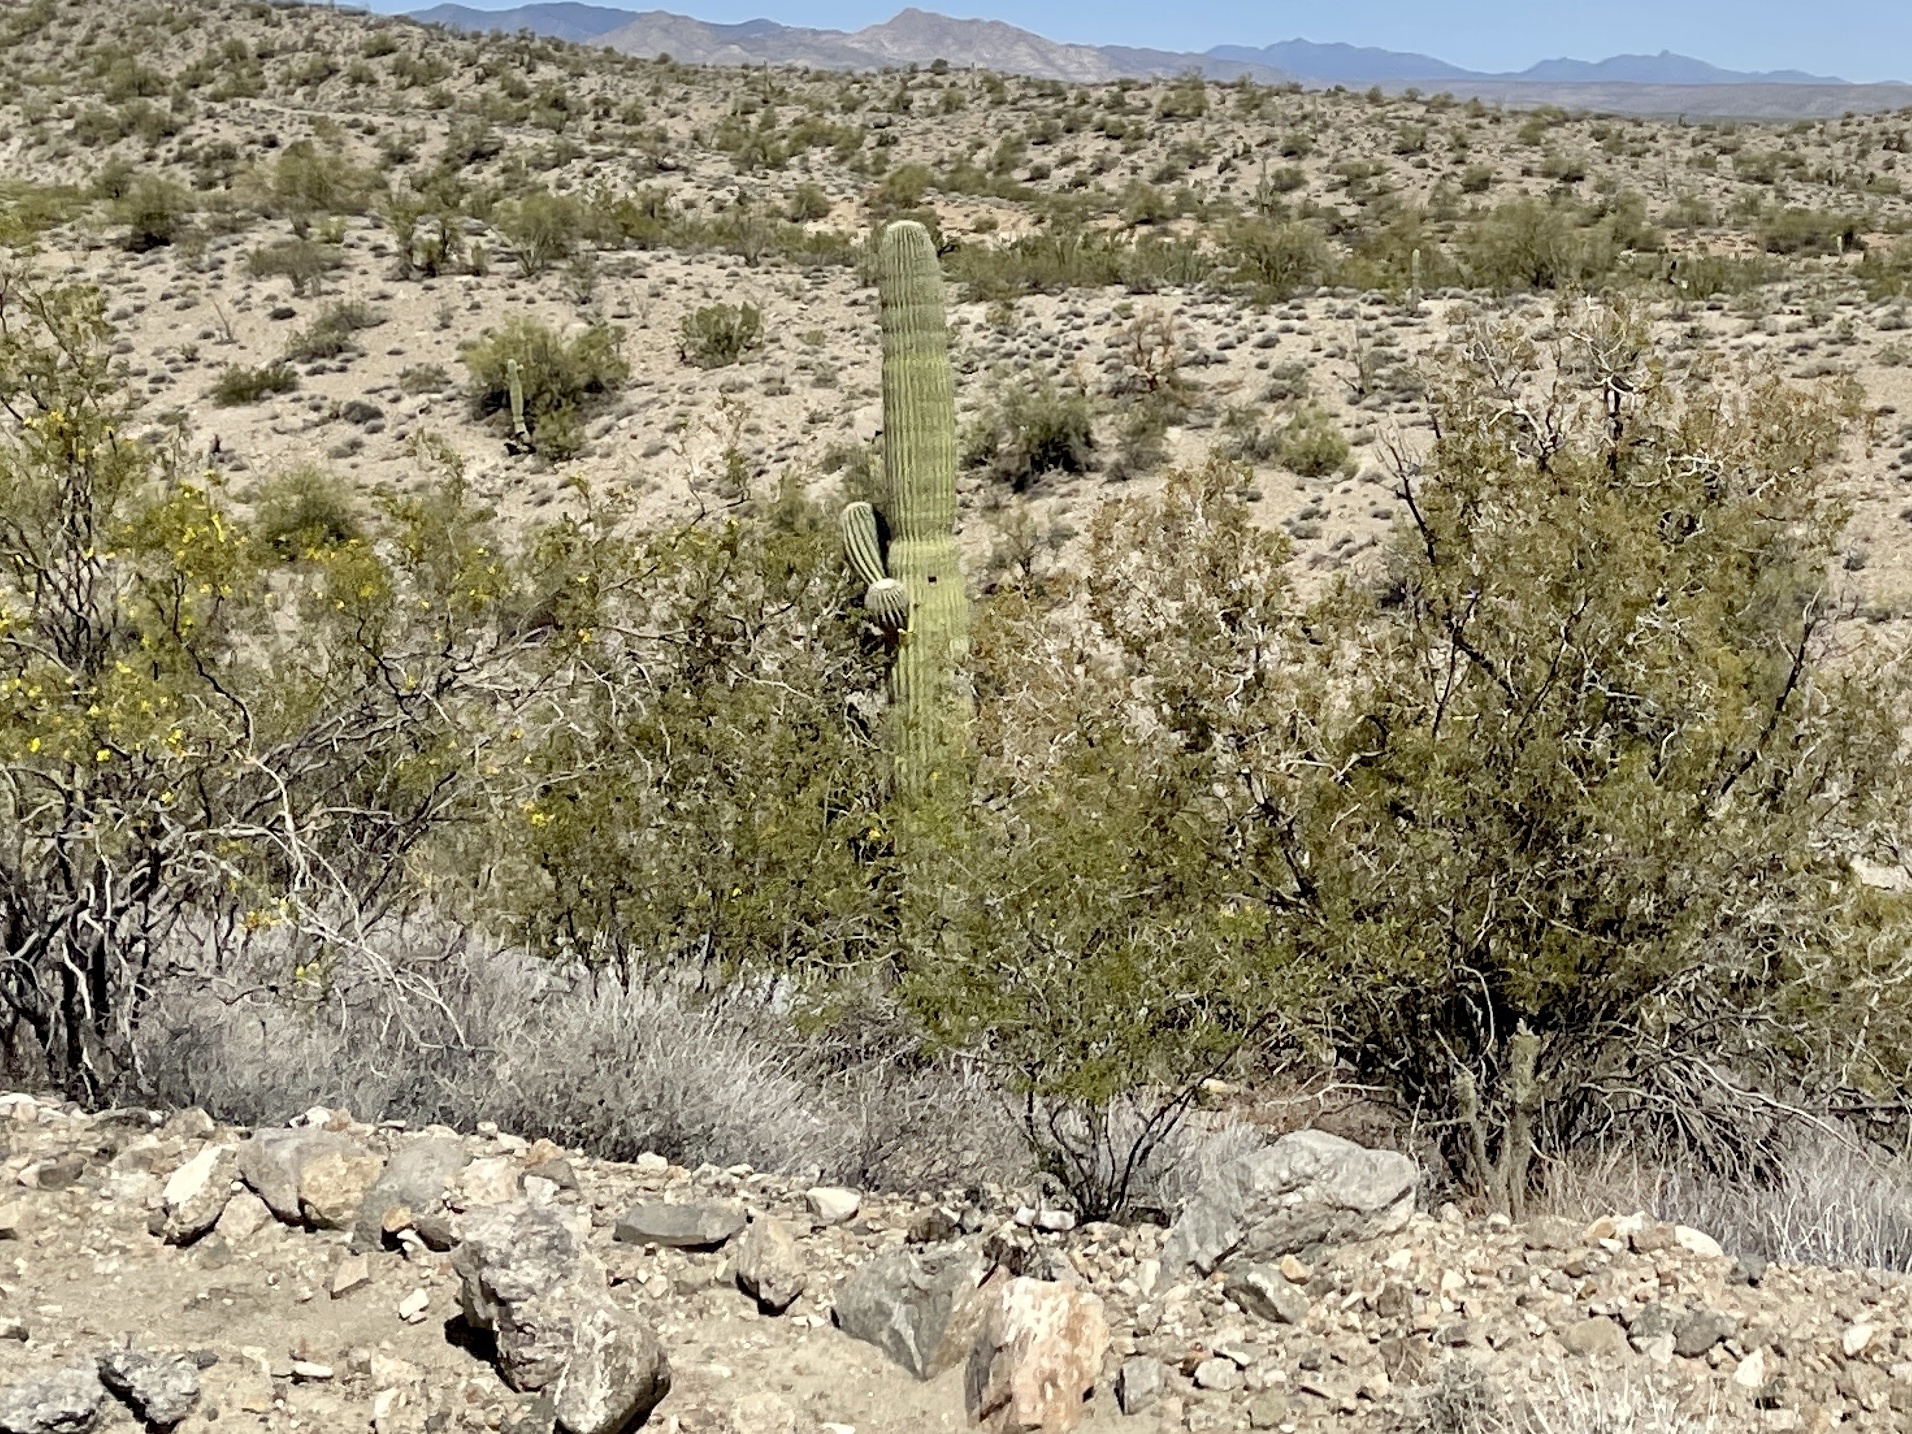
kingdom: Plantae
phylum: Tracheophyta
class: Magnoliopsida
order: Caryophyllales
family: Cactaceae
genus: Carnegiea
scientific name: Carnegiea gigantea
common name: Saguaro
